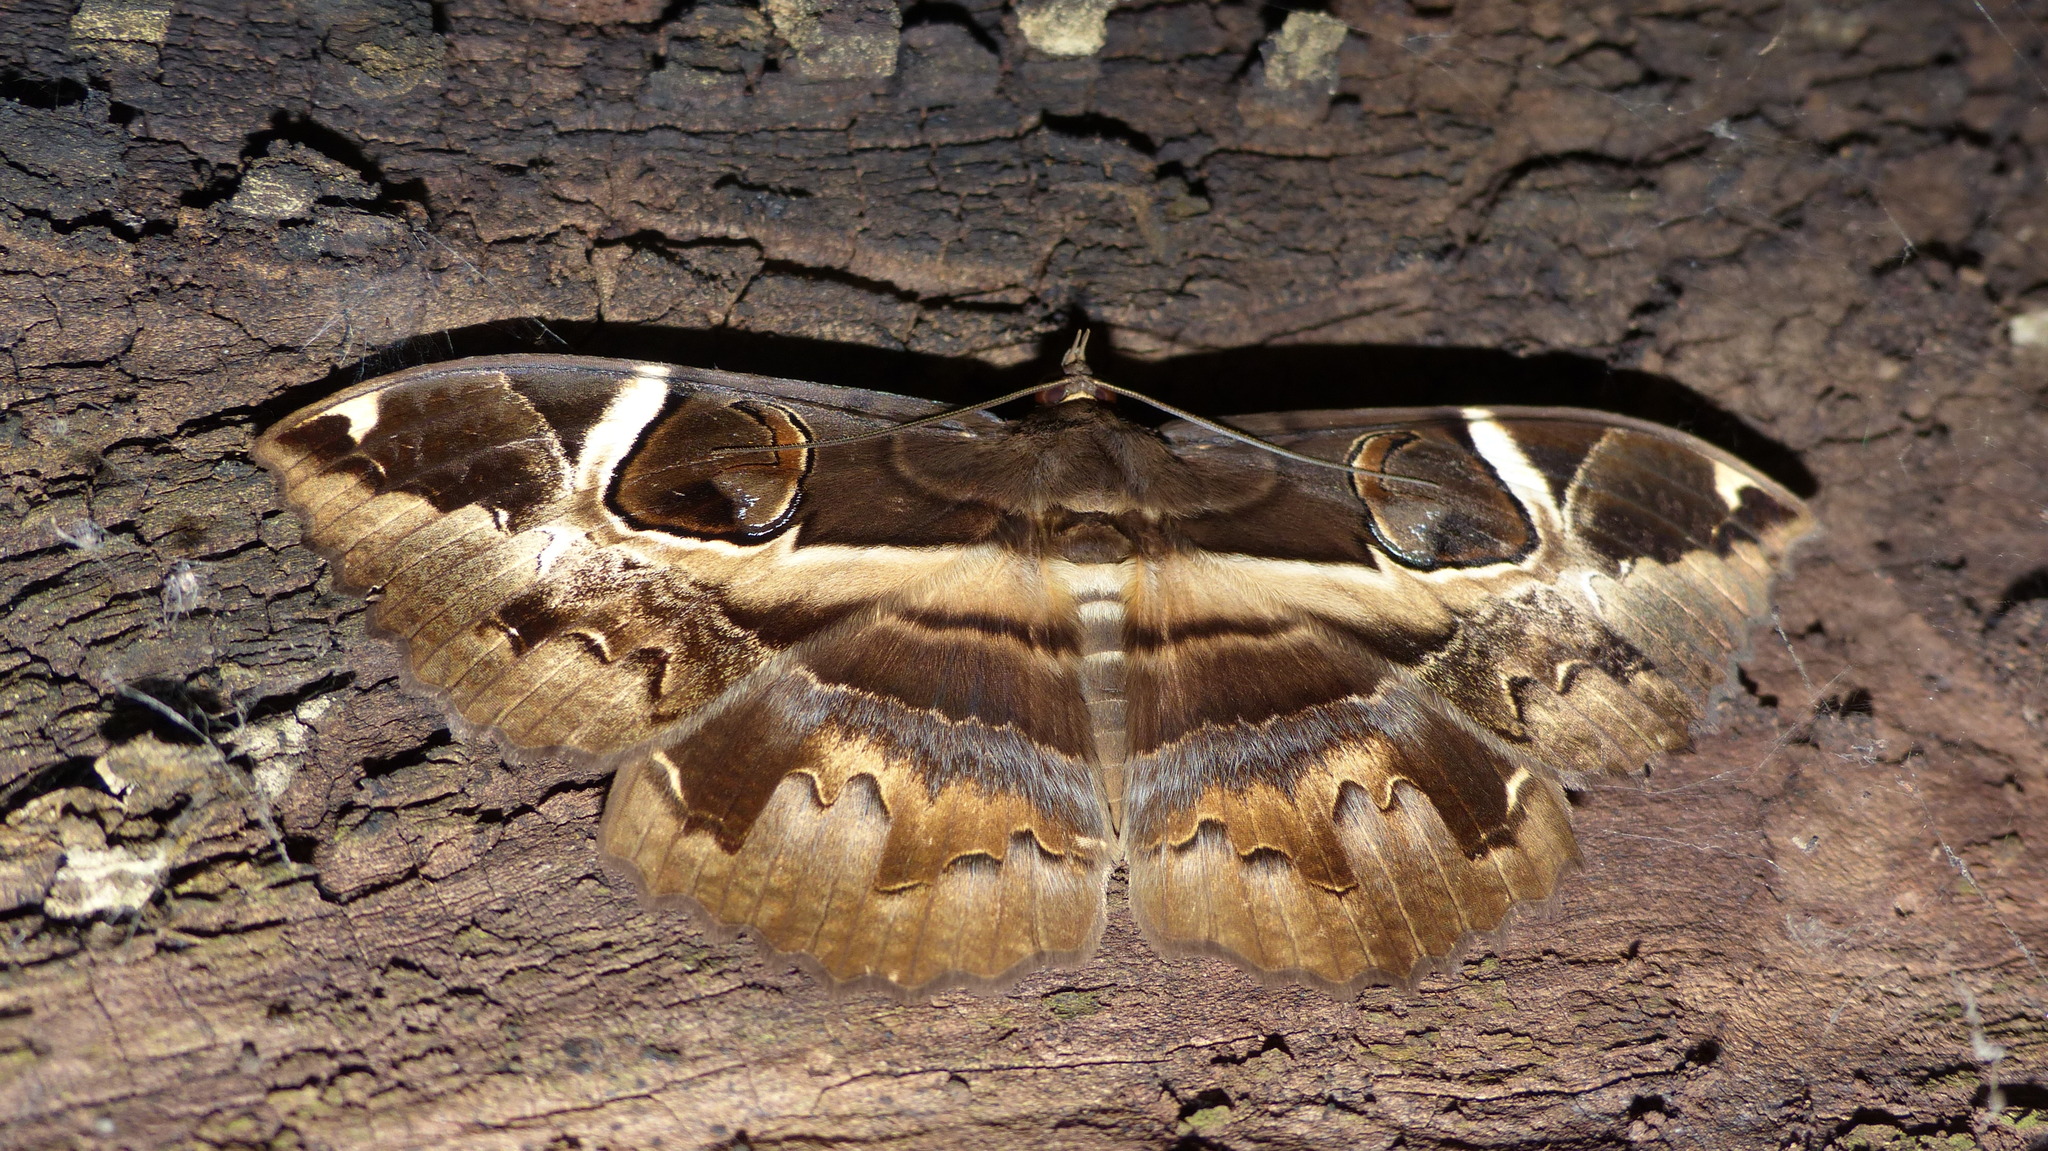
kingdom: Animalia
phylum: Arthropoda
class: Insecta
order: Lepidoptera
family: Erebidae
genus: Erebus
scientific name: Erebus ephesperis
